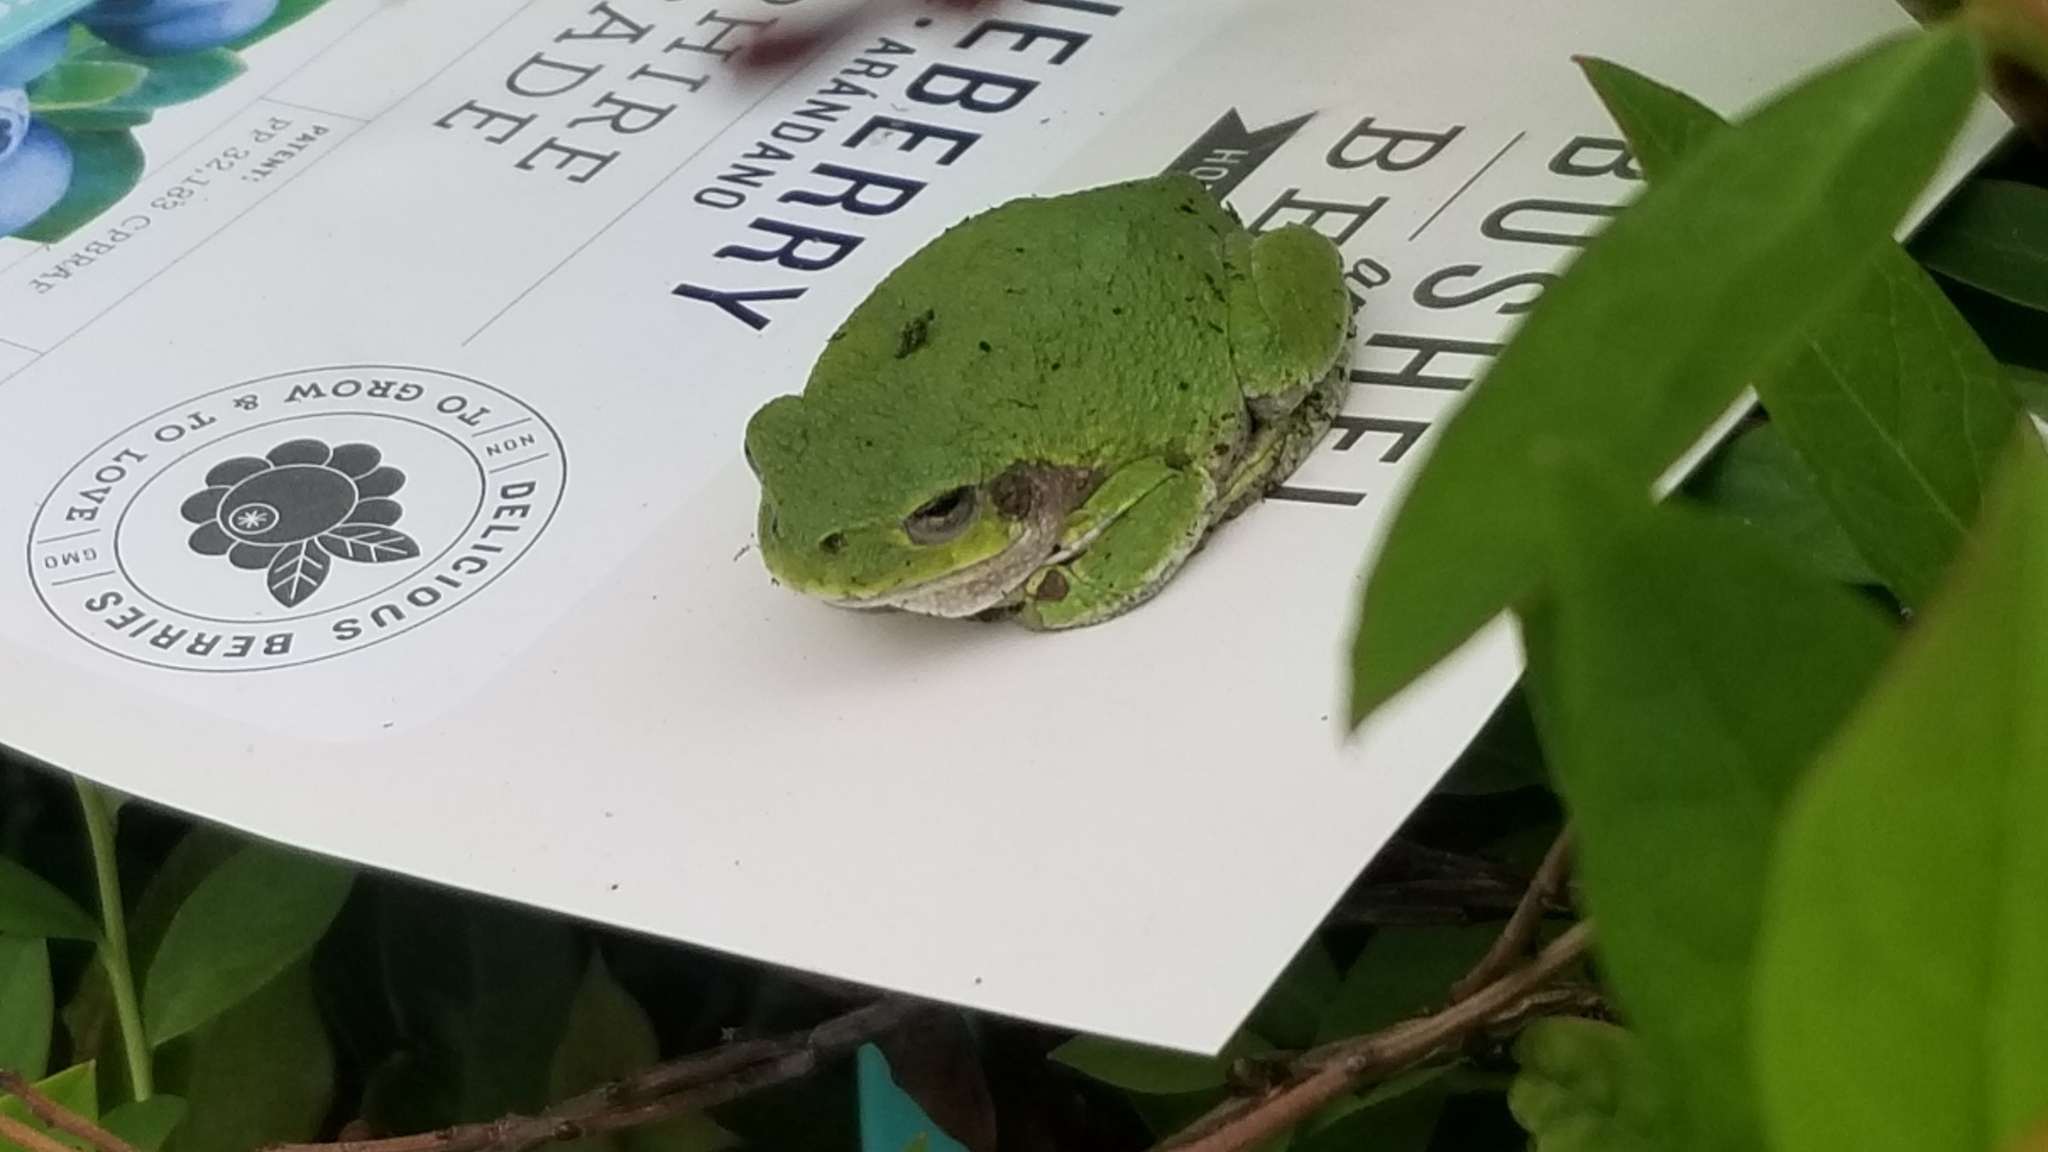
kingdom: Animalia
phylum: Chordata
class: Amphibia
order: Anura
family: Hylidae
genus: Hyla
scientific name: Hyla
